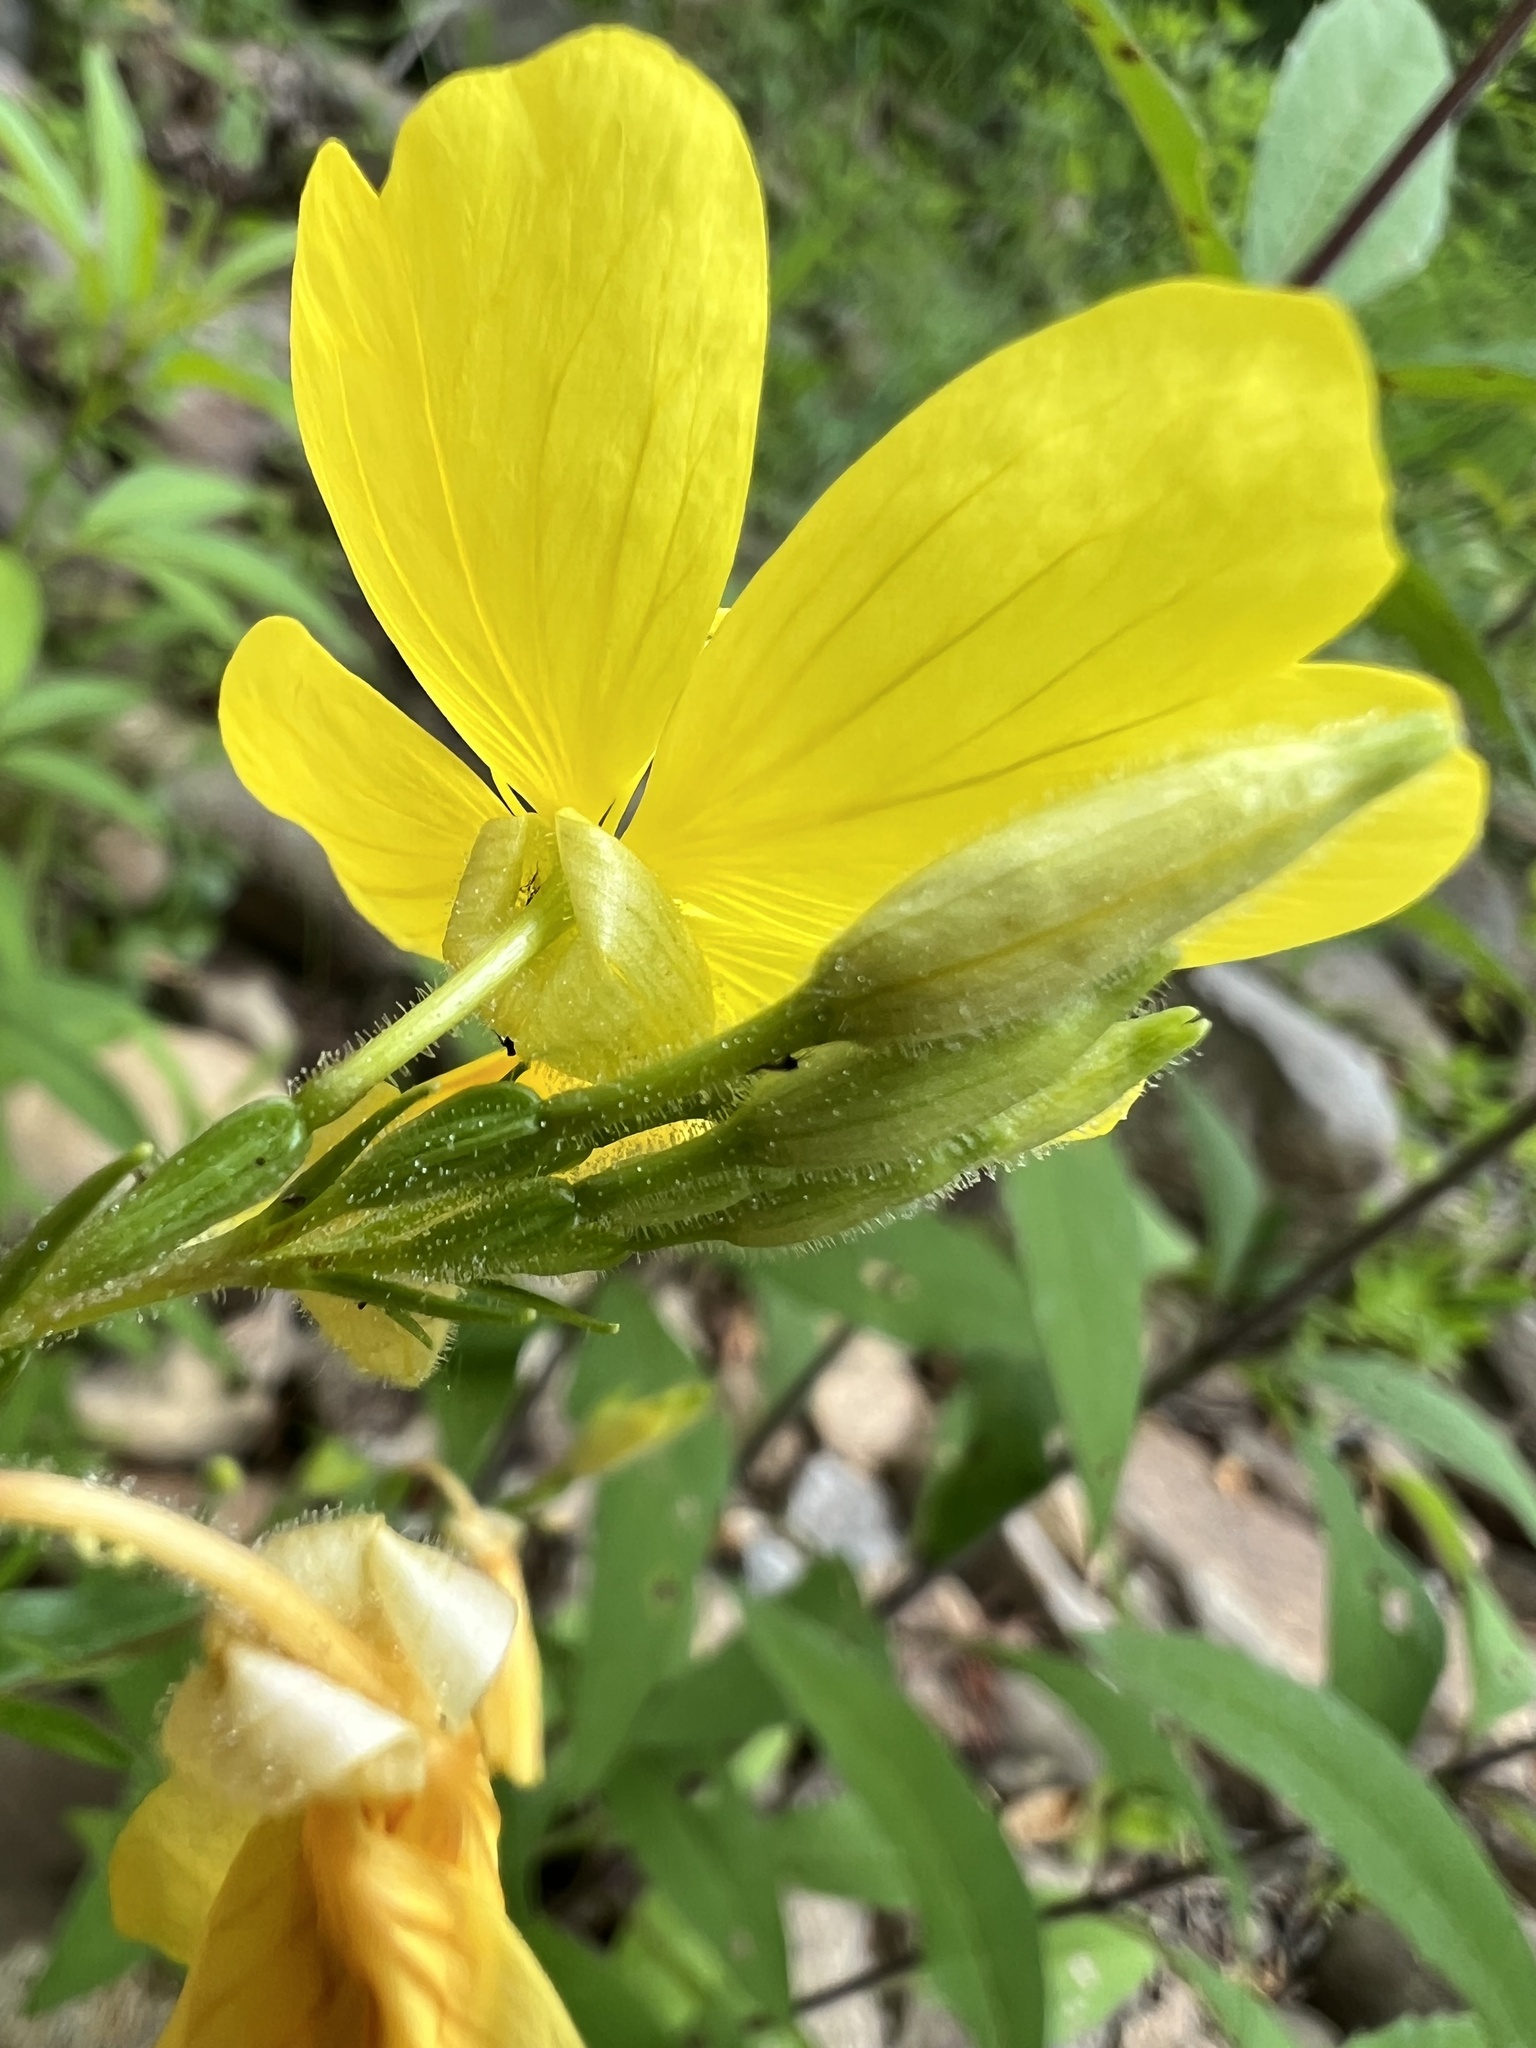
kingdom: Plantae
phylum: Tracheophyta
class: Magnoliopsida
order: Myrtales
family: Onagraceae
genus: Oenothera
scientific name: Oenothera tetragona
